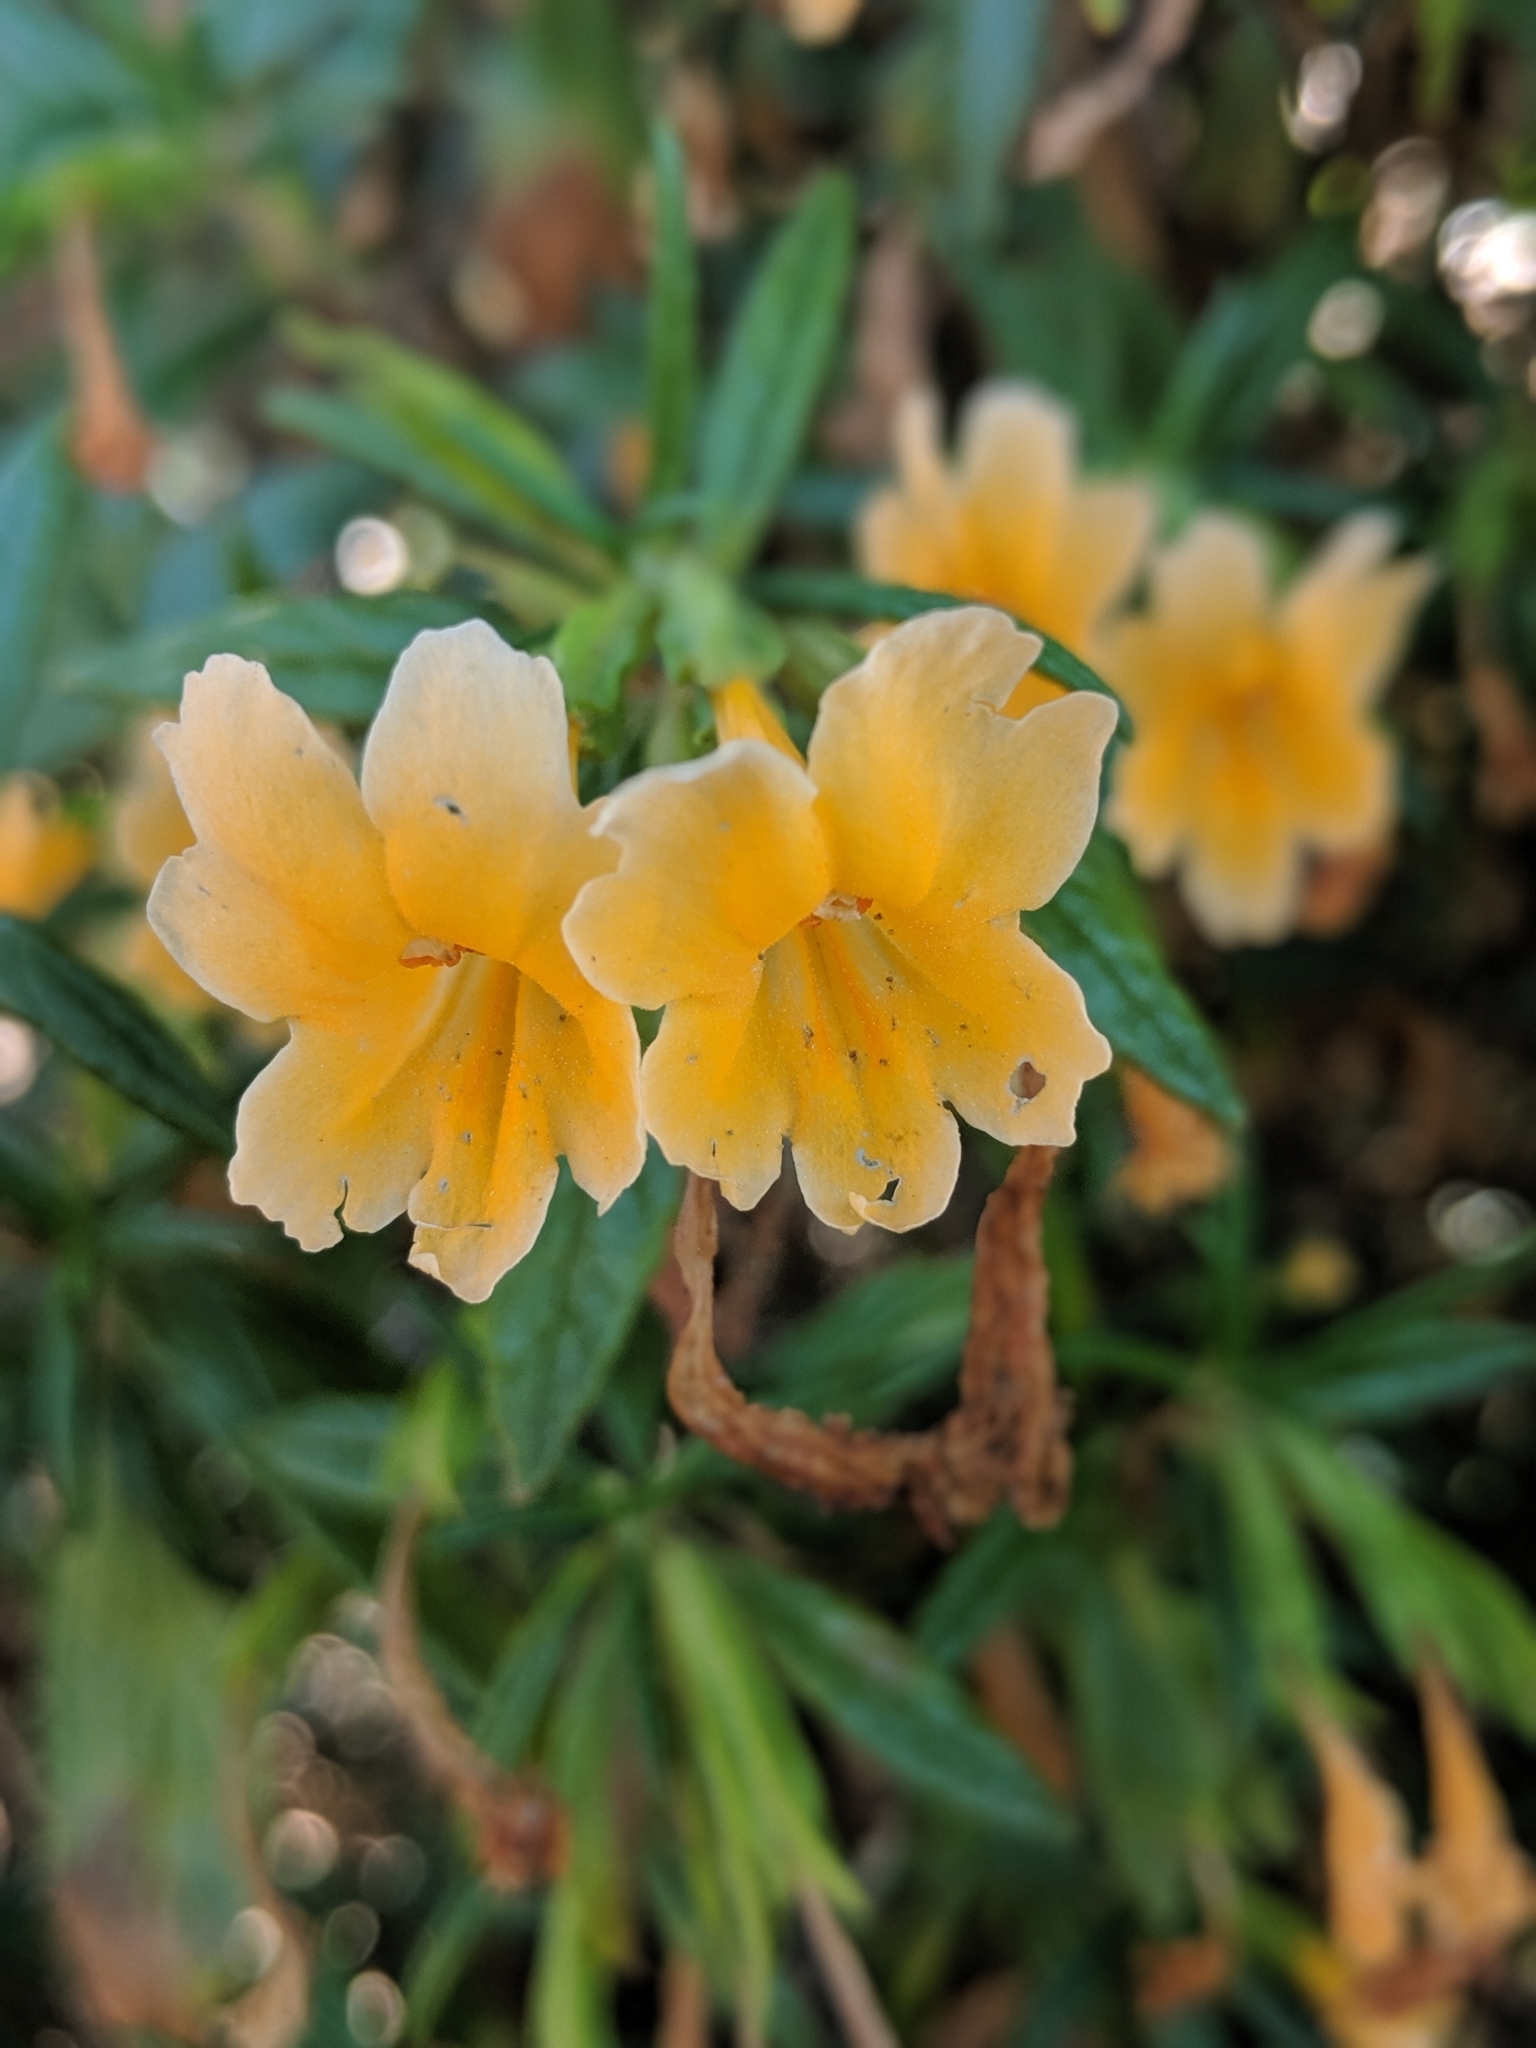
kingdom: Plantae
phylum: Tracheophyta
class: Magnoliopsida
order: Lamiales
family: Phrymaceae
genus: Diplacus
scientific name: Diplacus aurantiacus
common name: Bush monkey-flower
